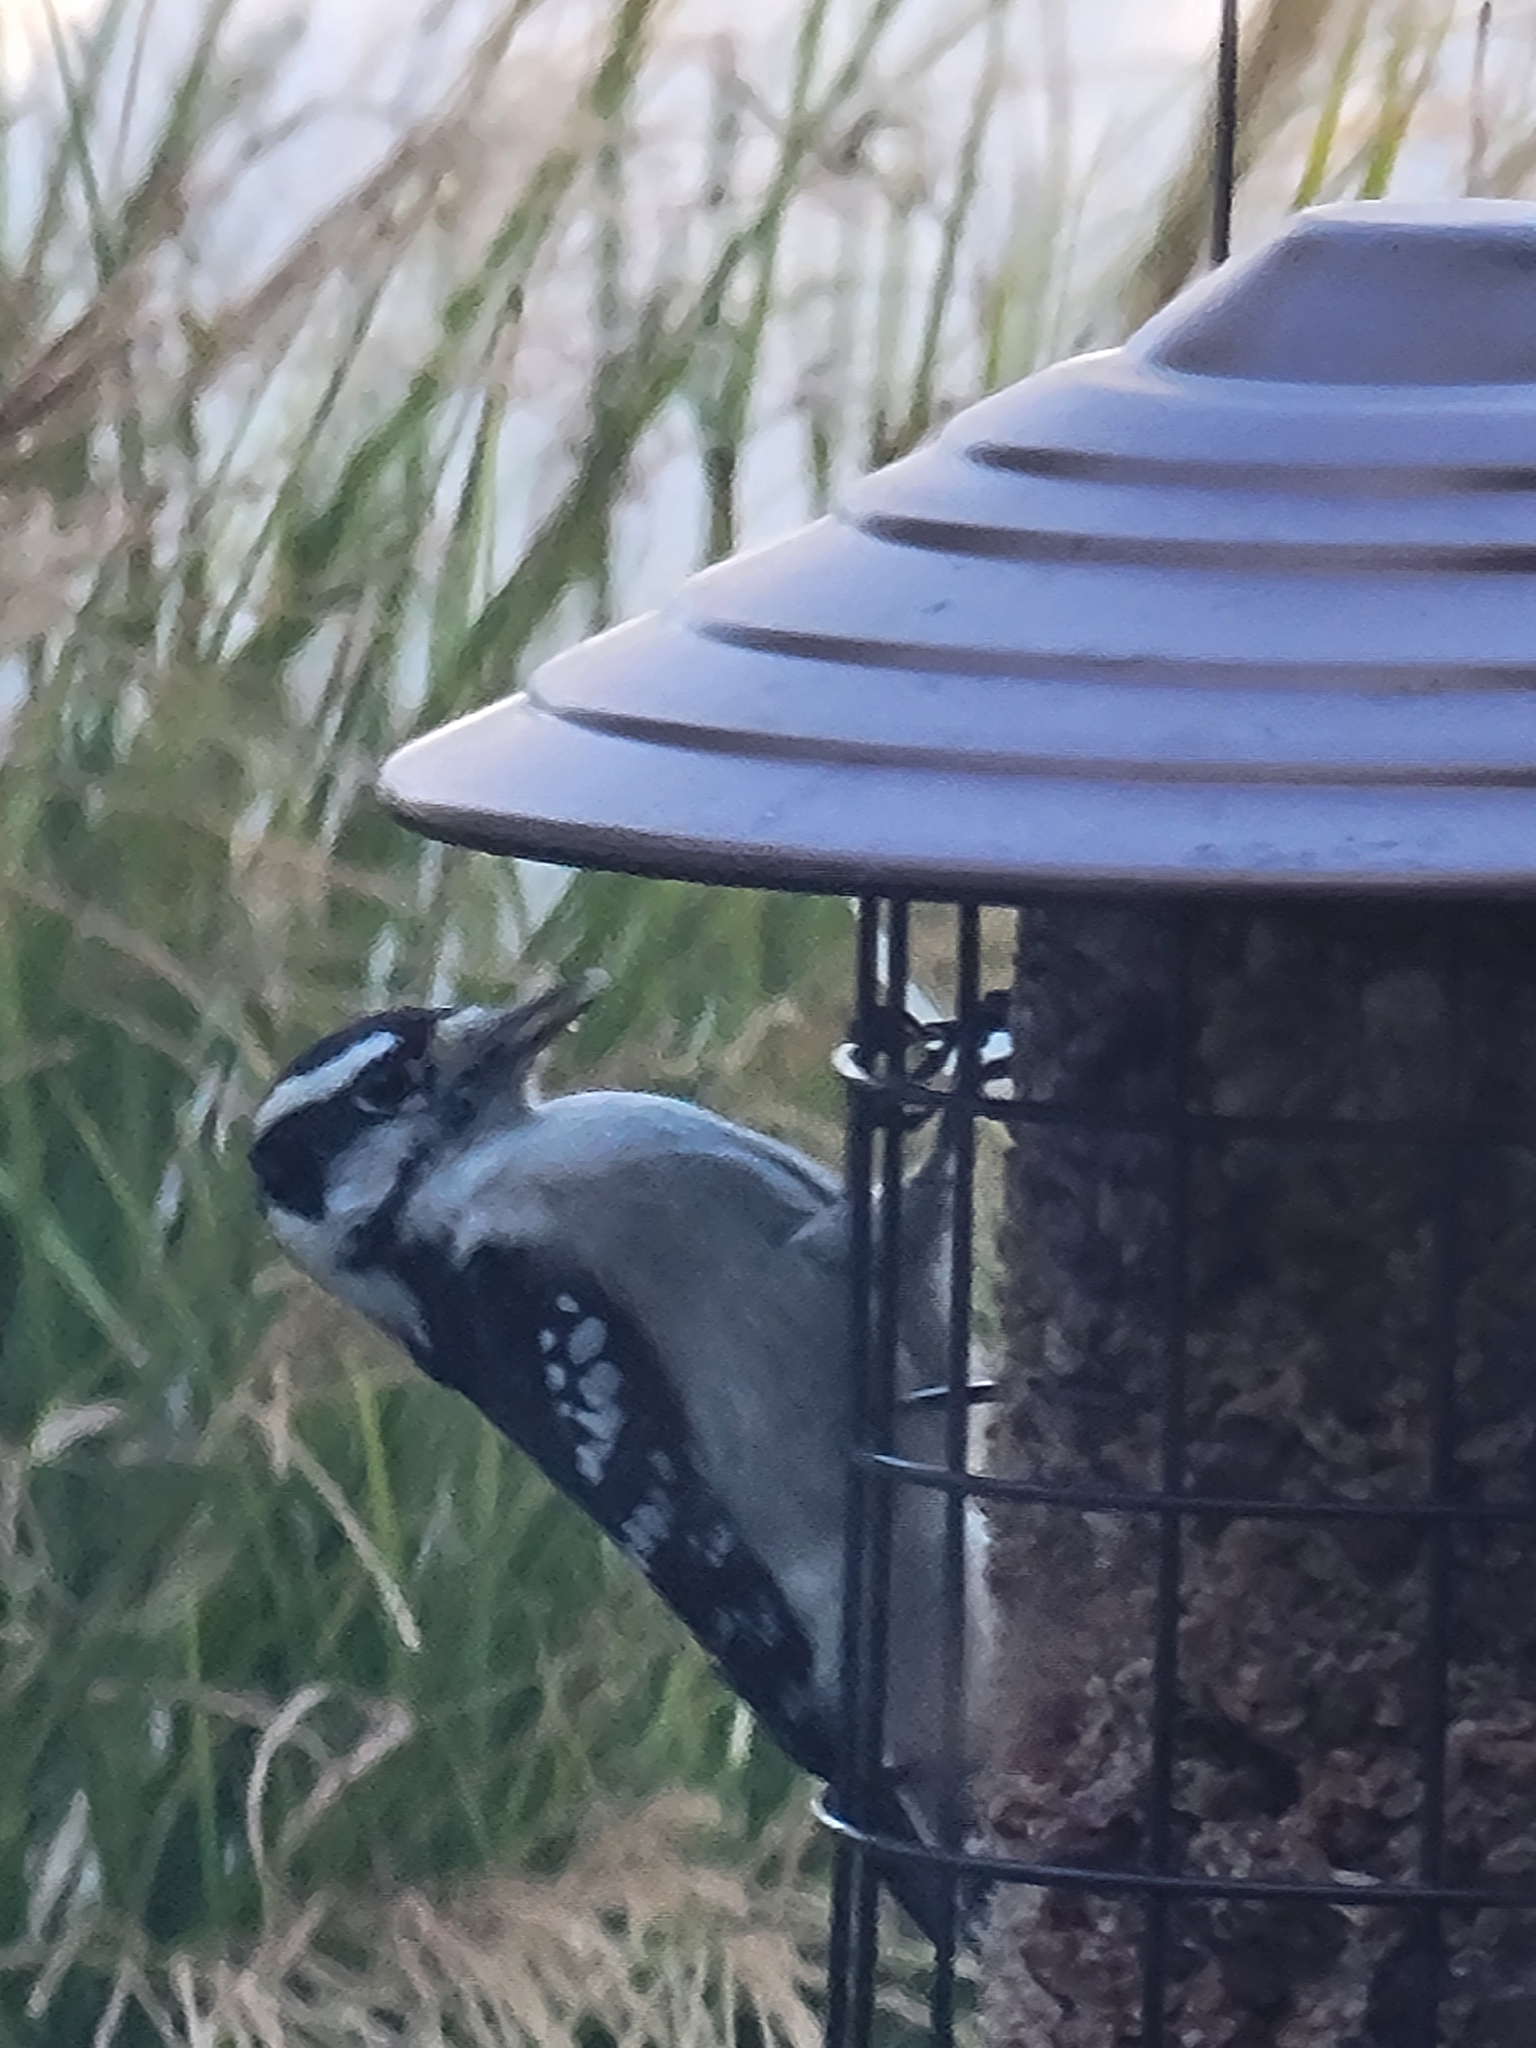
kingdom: Animalia
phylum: Chordata
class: Aves
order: Piciformes
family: Picidae
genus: Dryobates
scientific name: Dryobates pubescens
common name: Downy woodpecker
